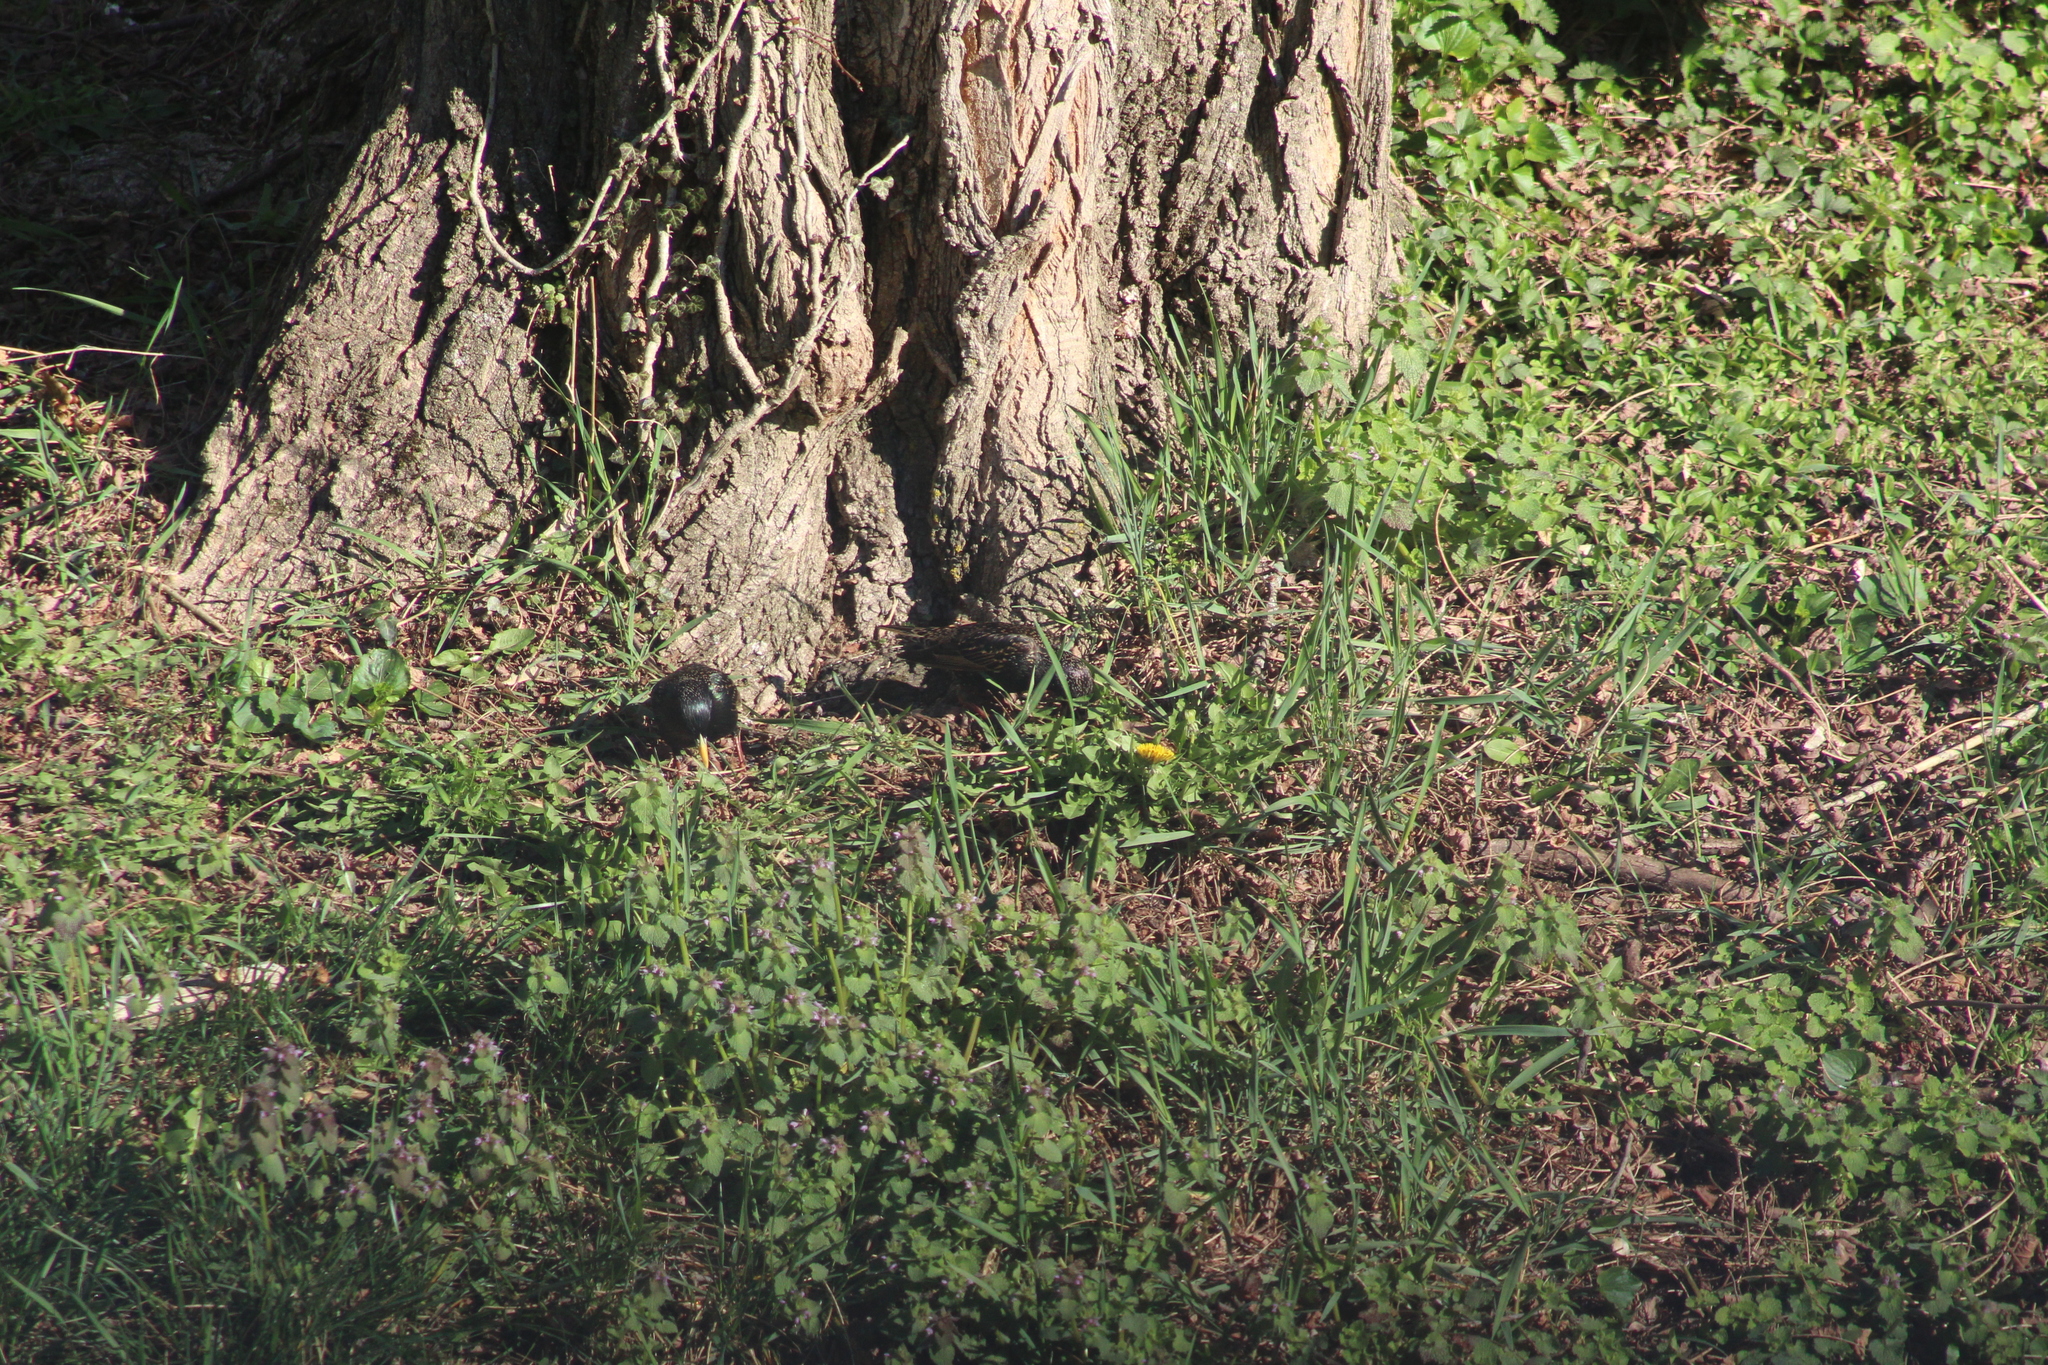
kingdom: Animalia
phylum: Chordata
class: Aves
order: Passeriformes
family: Sturnidae
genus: Sturnus
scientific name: Sturnus vulgaris
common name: Common starling
